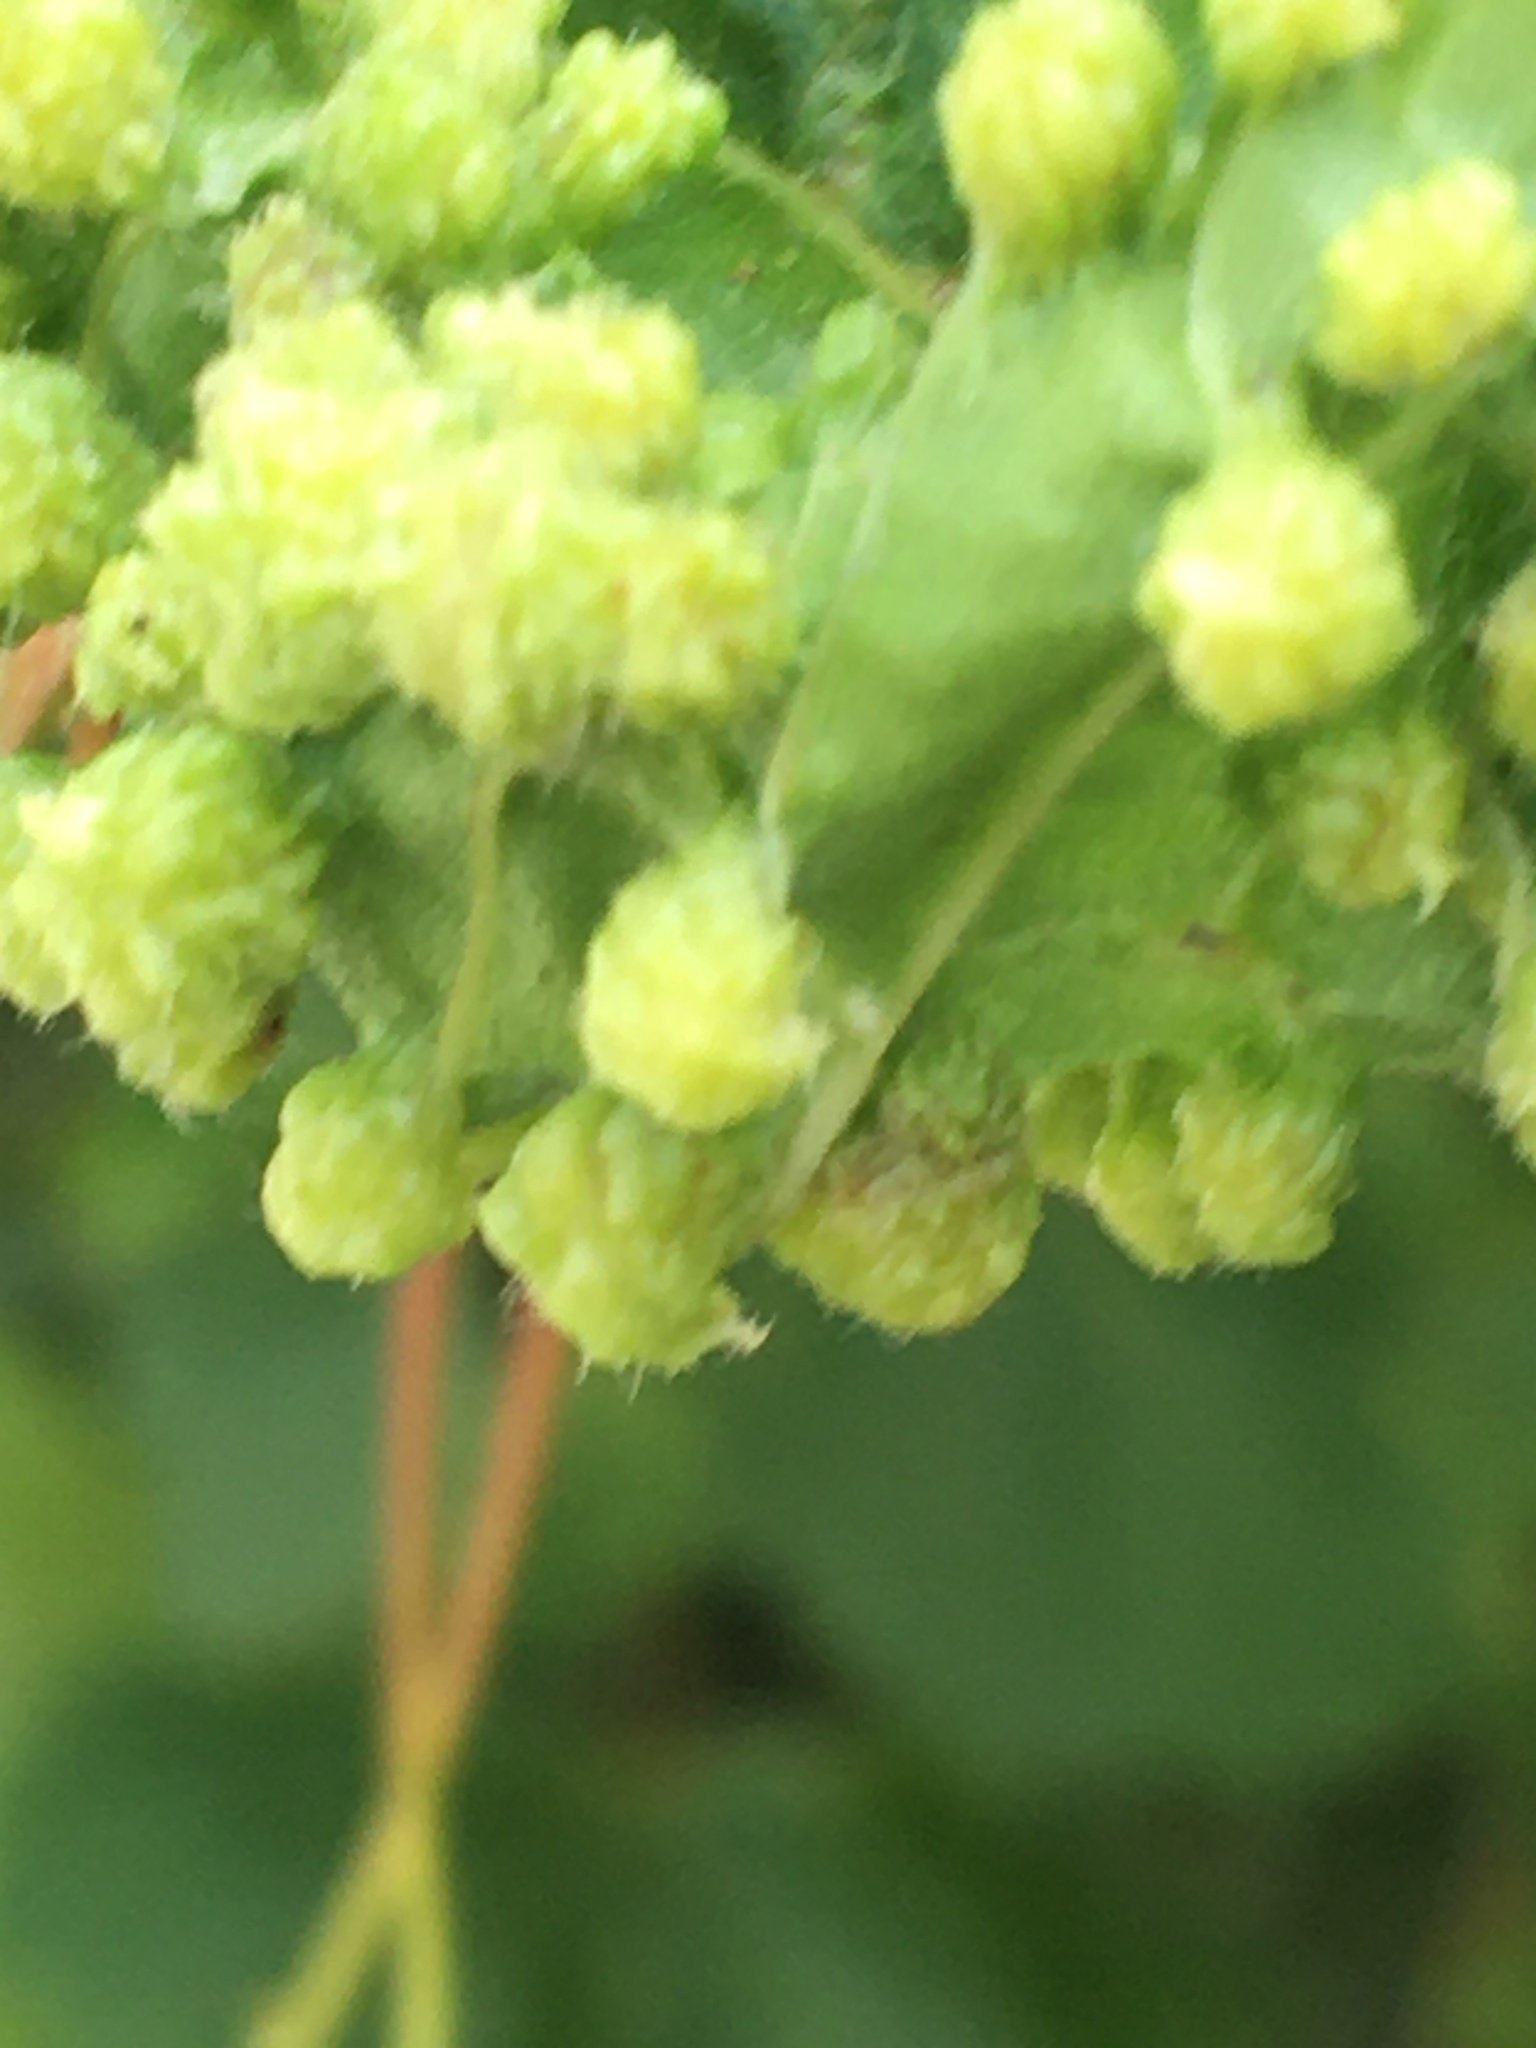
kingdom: Animalia
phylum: Arthropoda
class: Insecta
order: Hemiptera
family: Phylloxeridae
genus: Daktulosphaira
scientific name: Daktulosphaira vitifoliae
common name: Grape phylloxera
